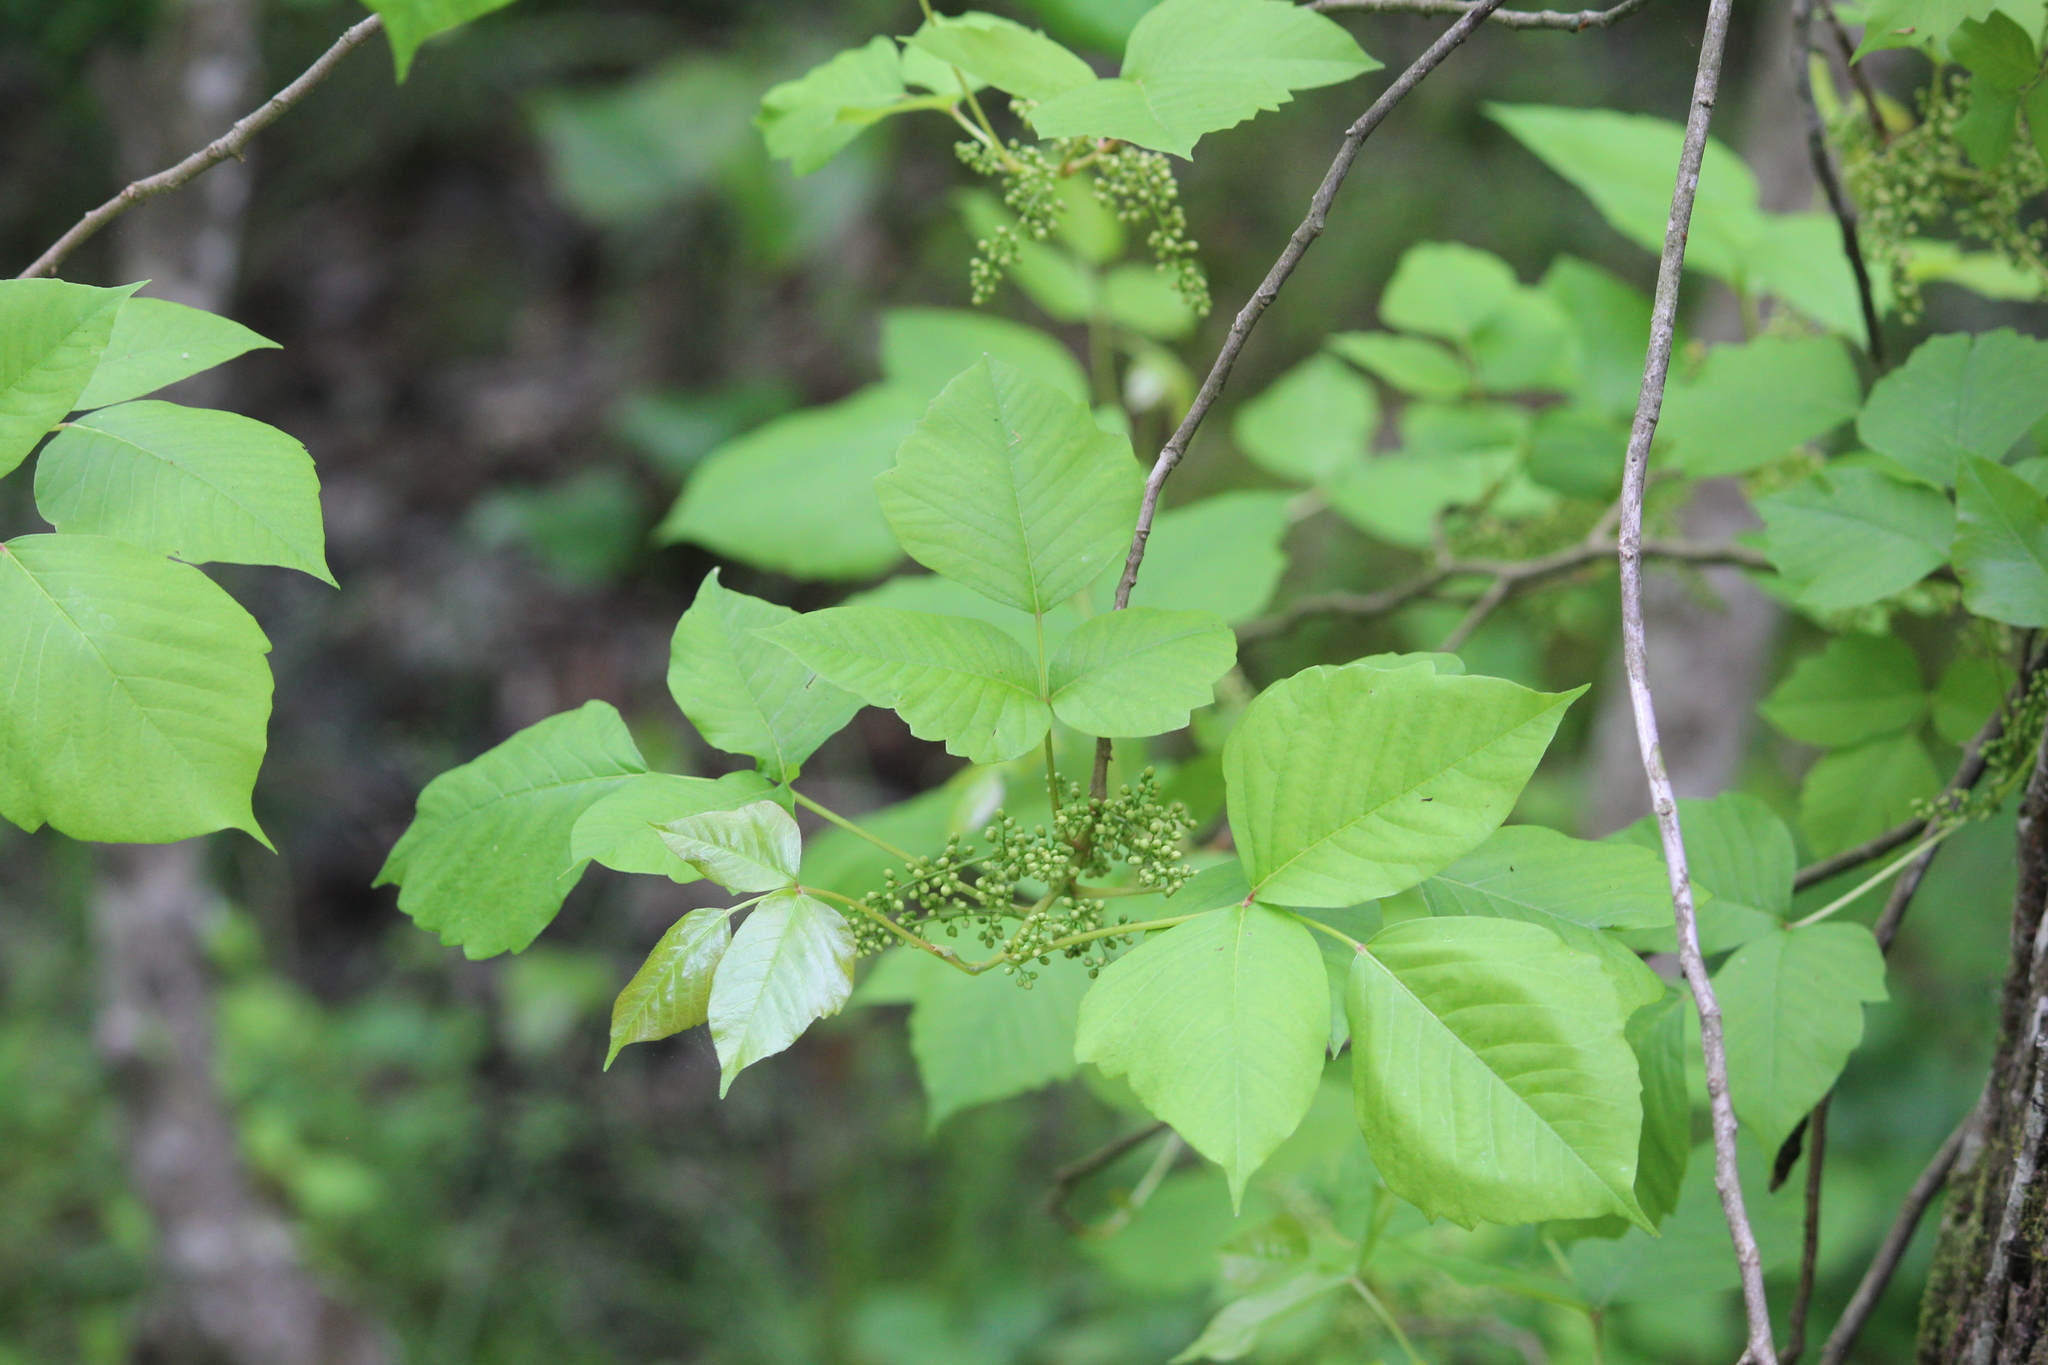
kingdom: Plantae
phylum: Tracheophyta
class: Magnoliopsida
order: Sapindales
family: Anacardiaceae
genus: Toxicodendron
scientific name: Toxicodendron radicans
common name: Poison ivy
